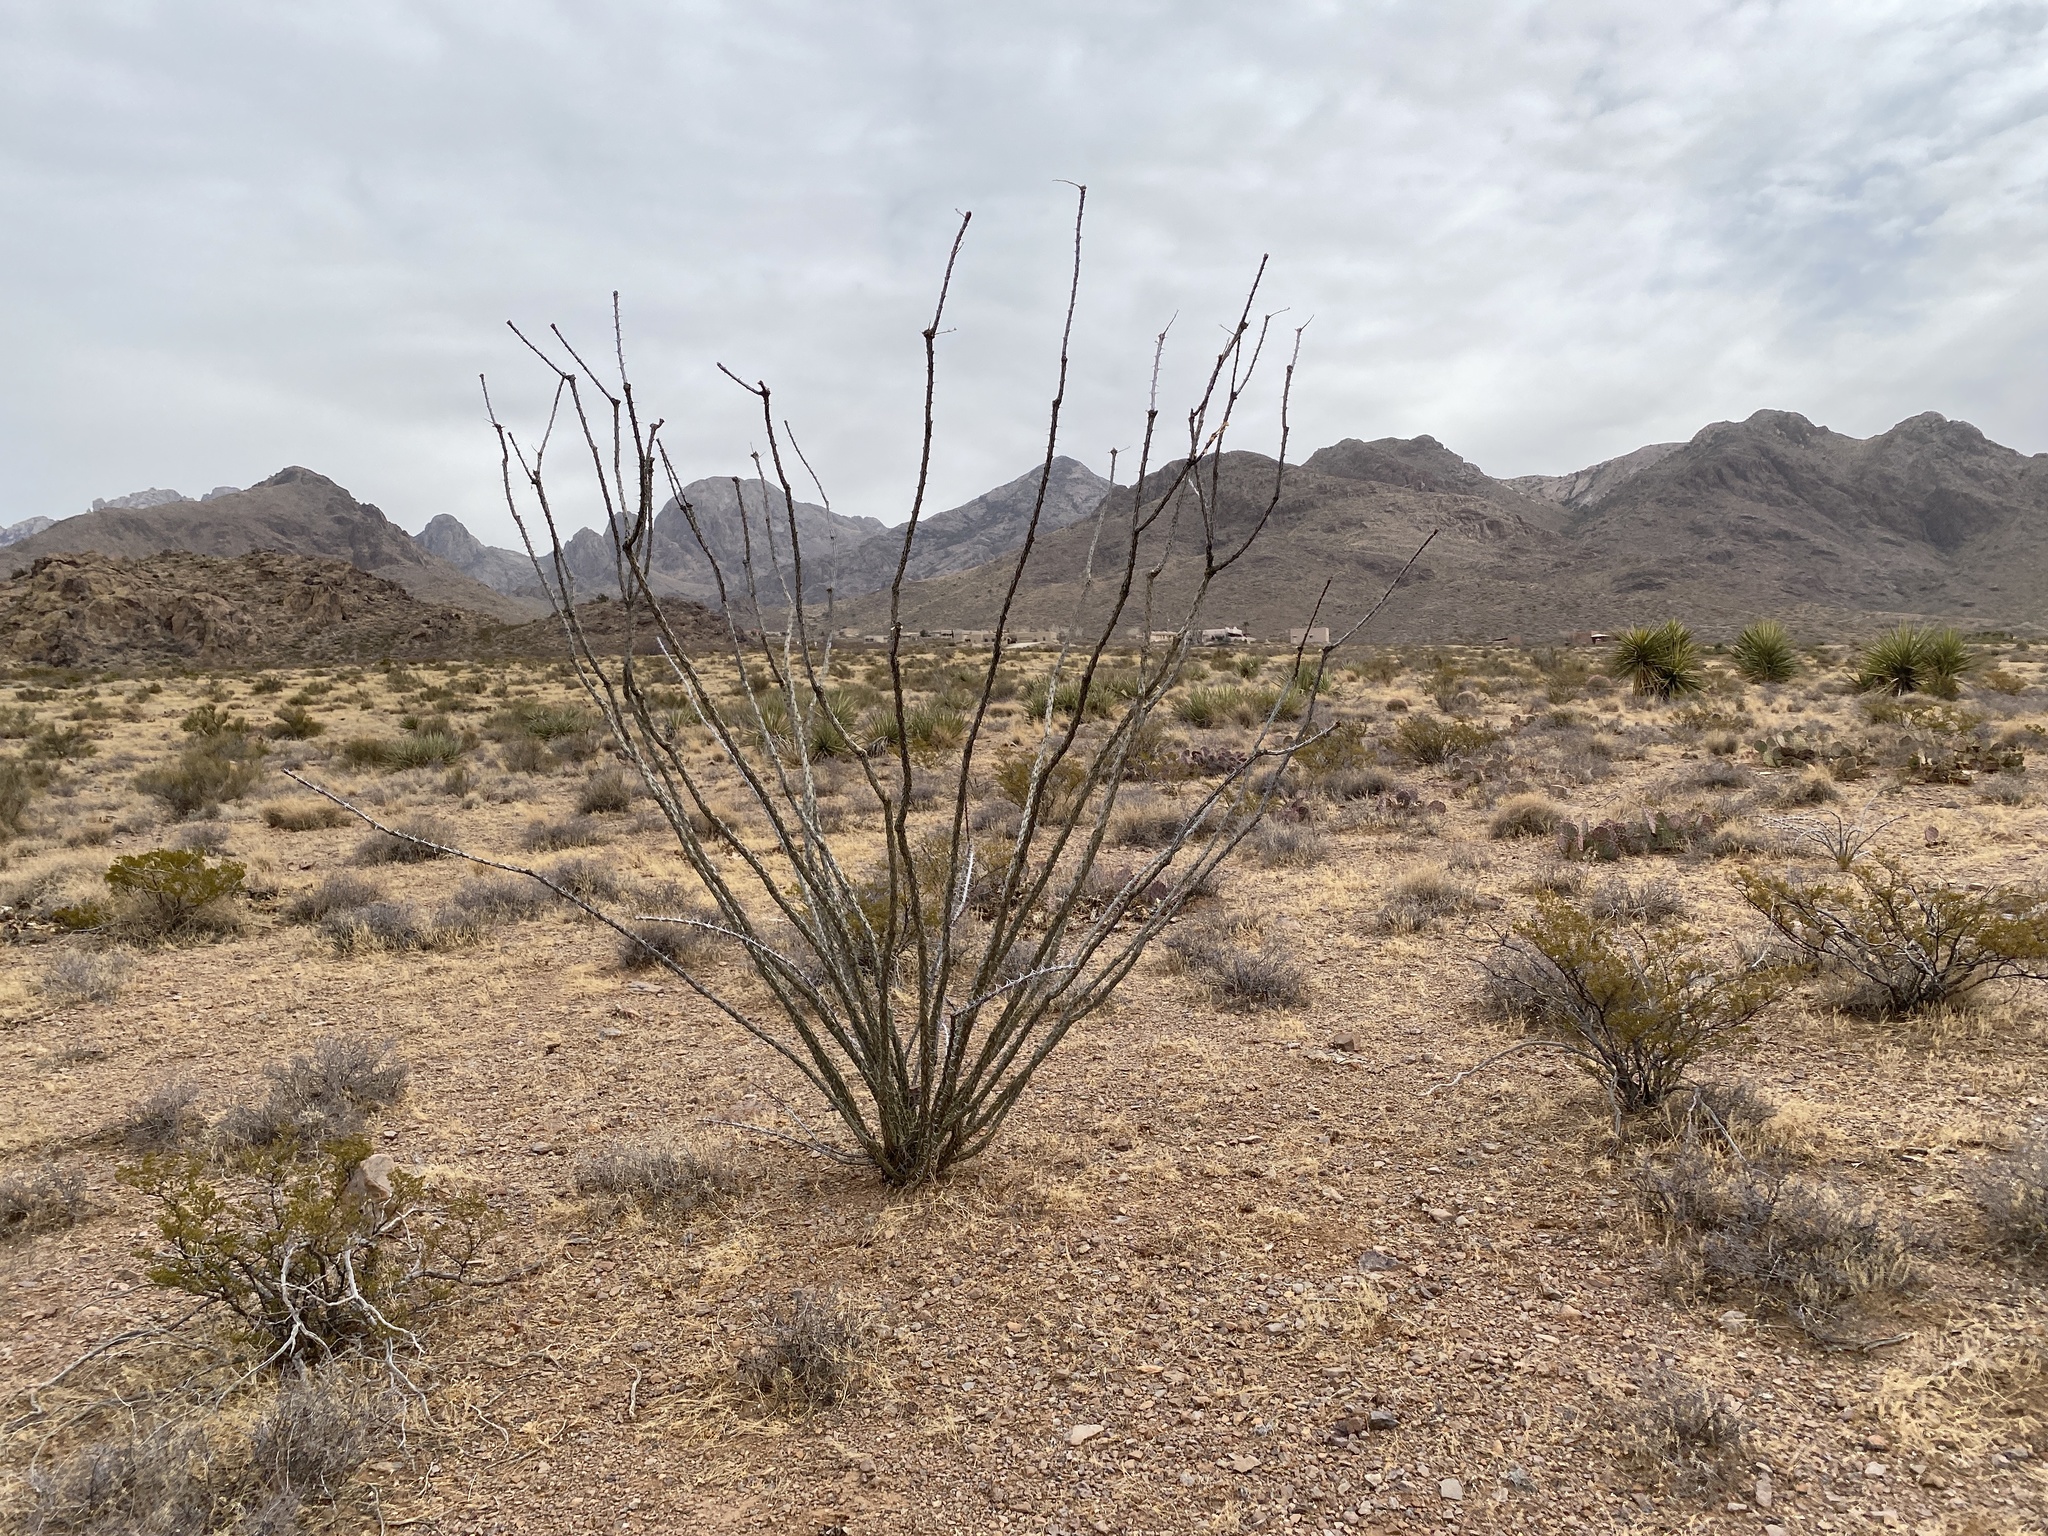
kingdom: Plantae
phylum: Tracheophyta
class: Magnoliopsida
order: Ericales
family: Fouquieriaceae
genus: Fouquieria
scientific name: Fouquieria splendens
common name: Vine-cactus
